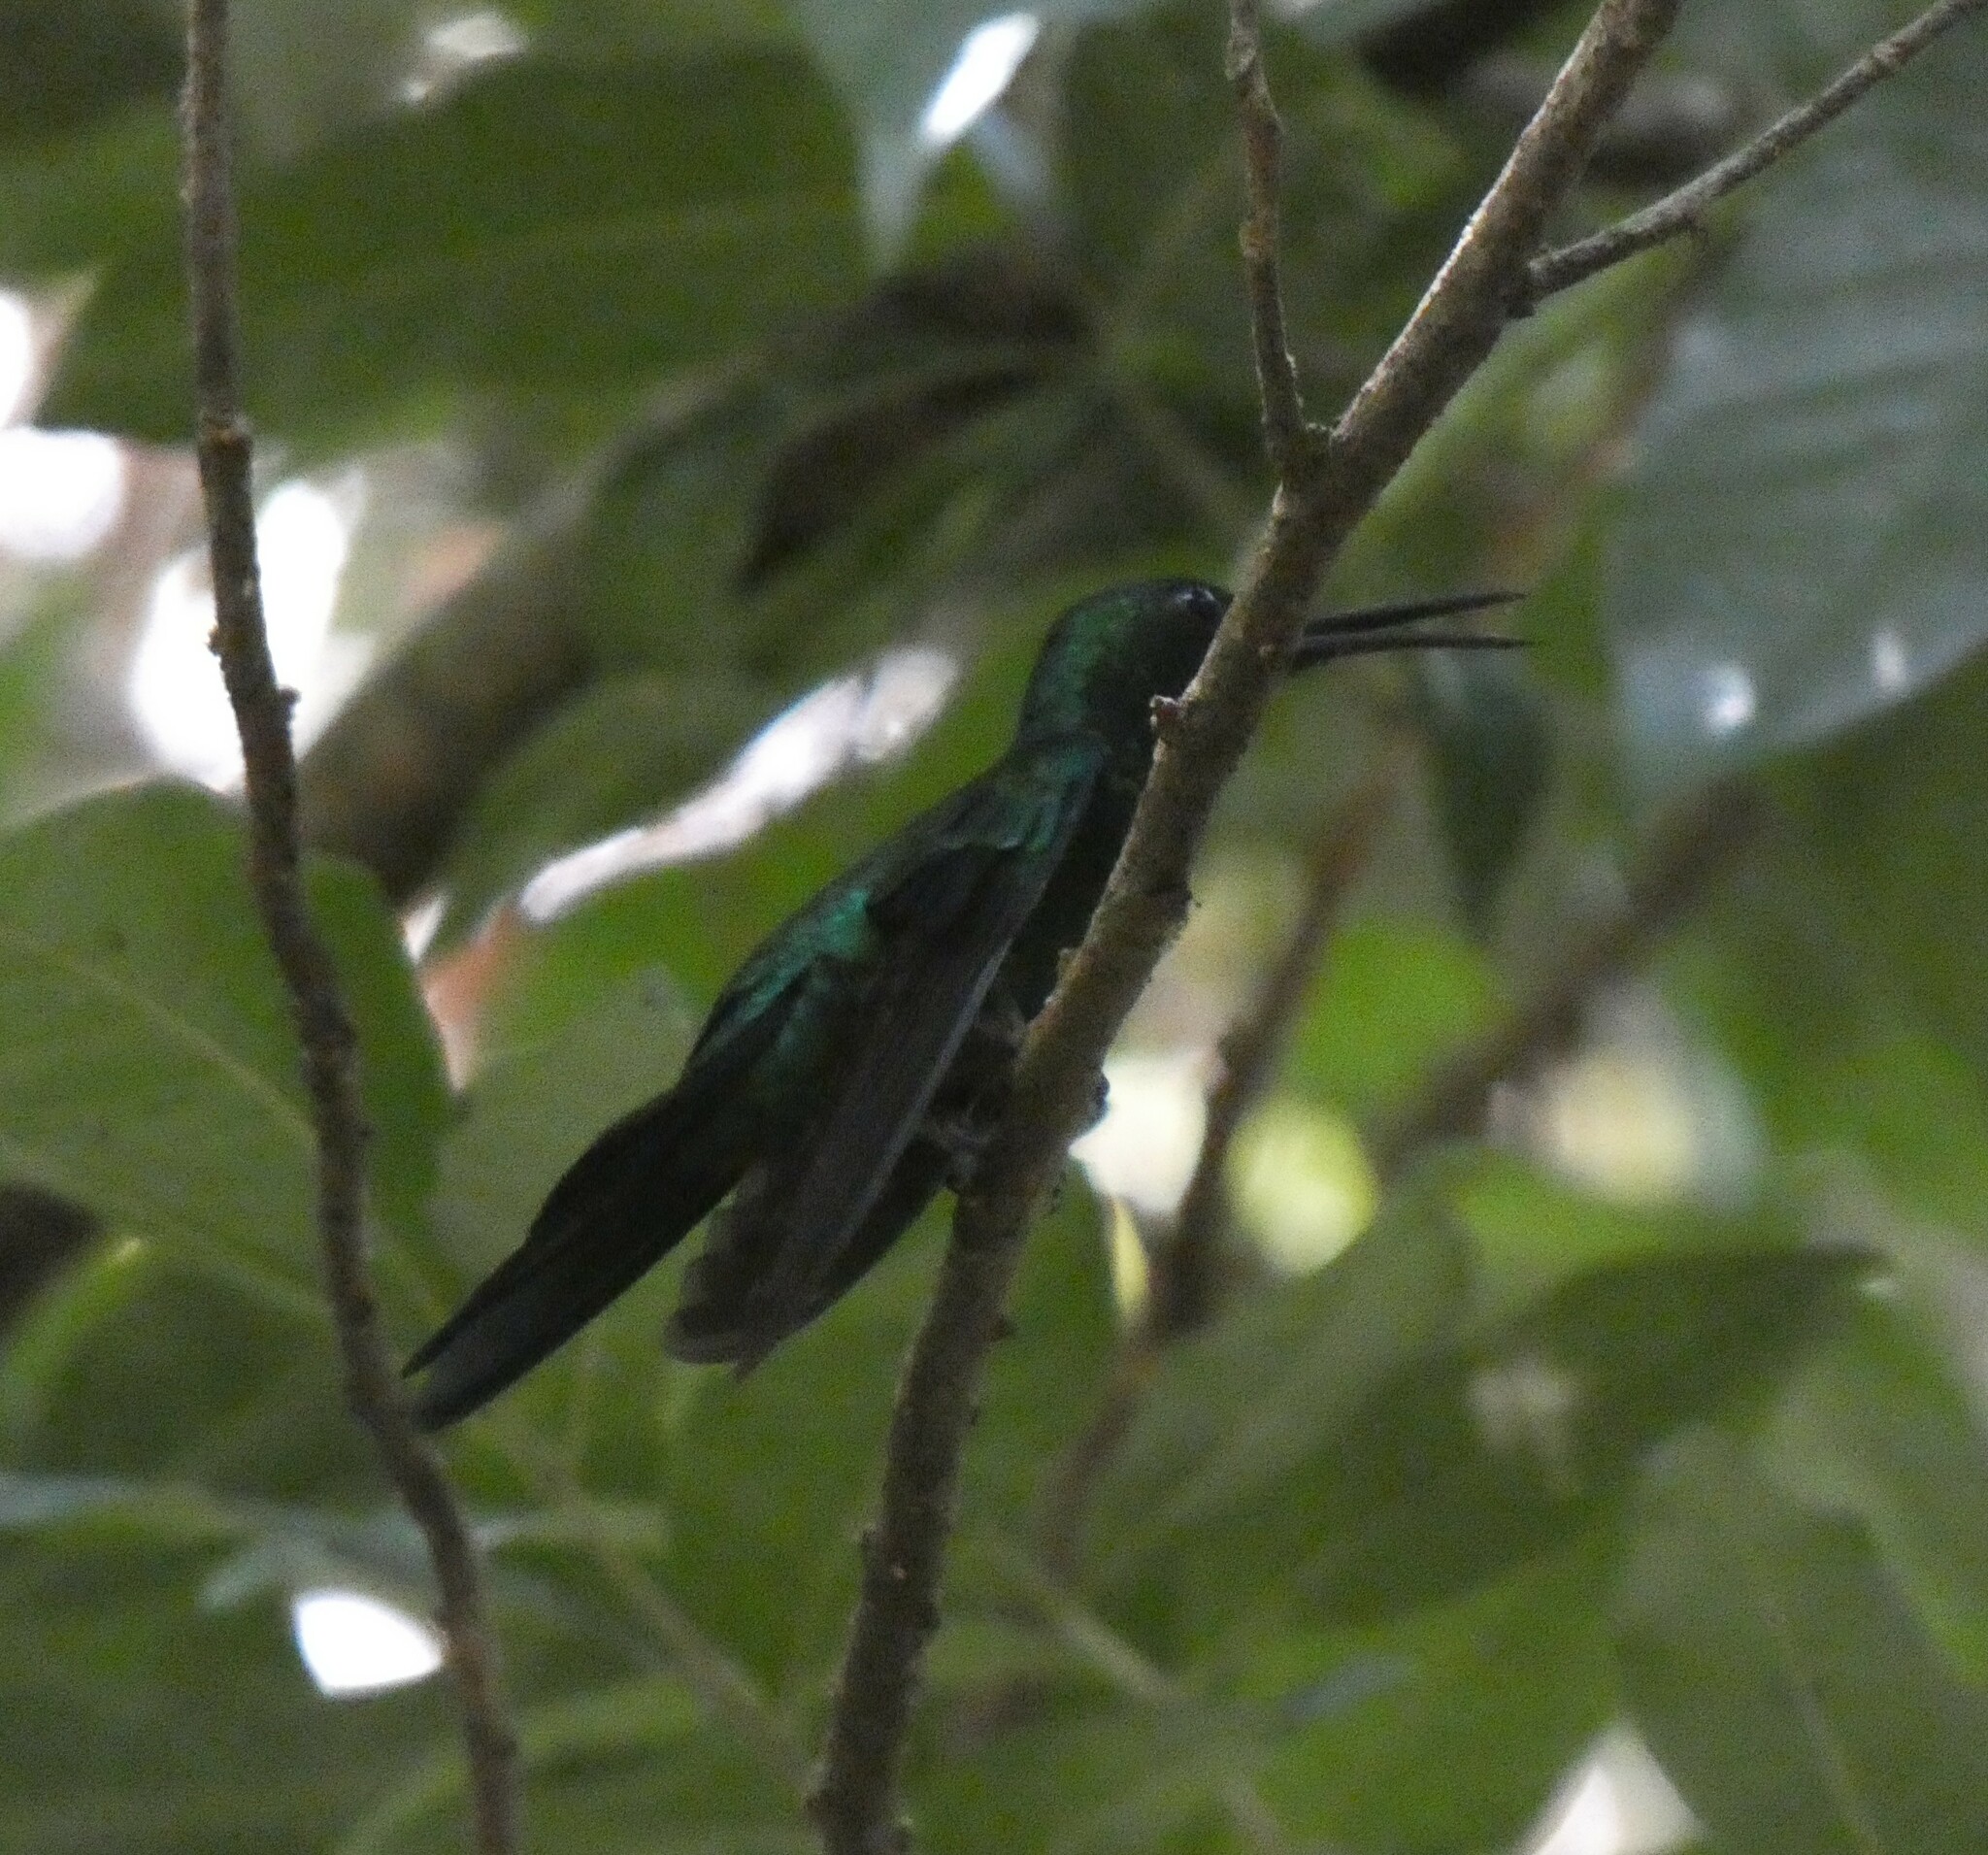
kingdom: Animalia
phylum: Chordata
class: Aves
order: Apodiformes
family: Trochilidae
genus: Thalurania
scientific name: Thalurania glaucopis
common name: Violet-capped woodnymph
